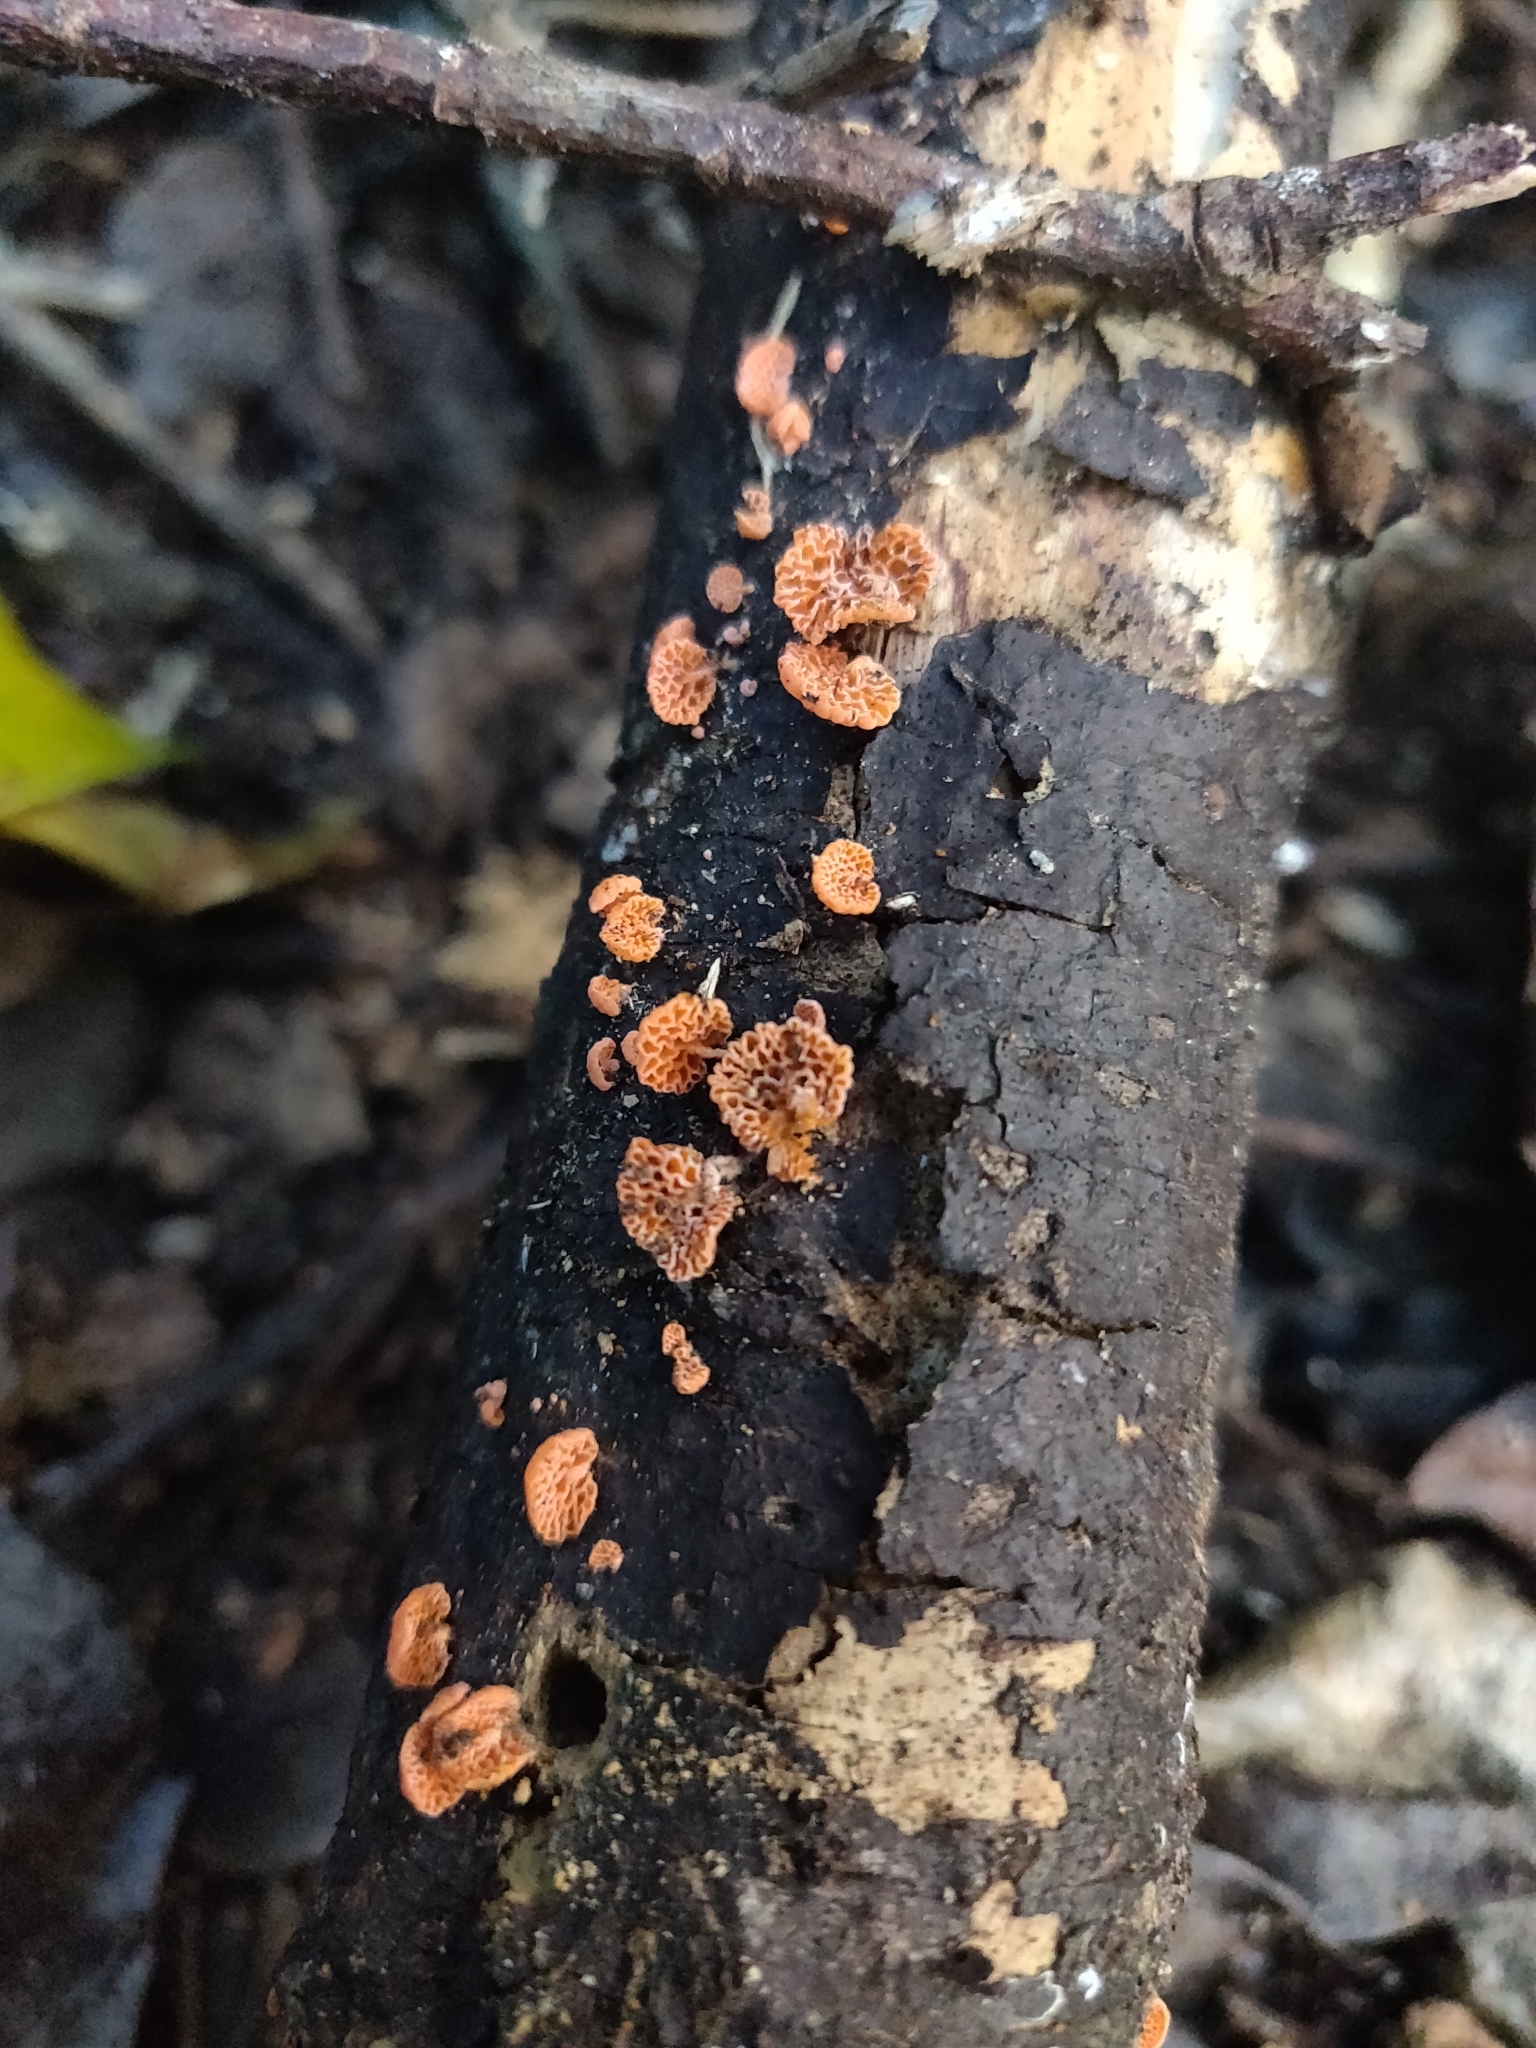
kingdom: Fungi
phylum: Basidiomycota
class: Agaricomycetes
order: Agaricales
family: Mycenaceae
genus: Favolaschia
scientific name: Favolaschia claudopus
